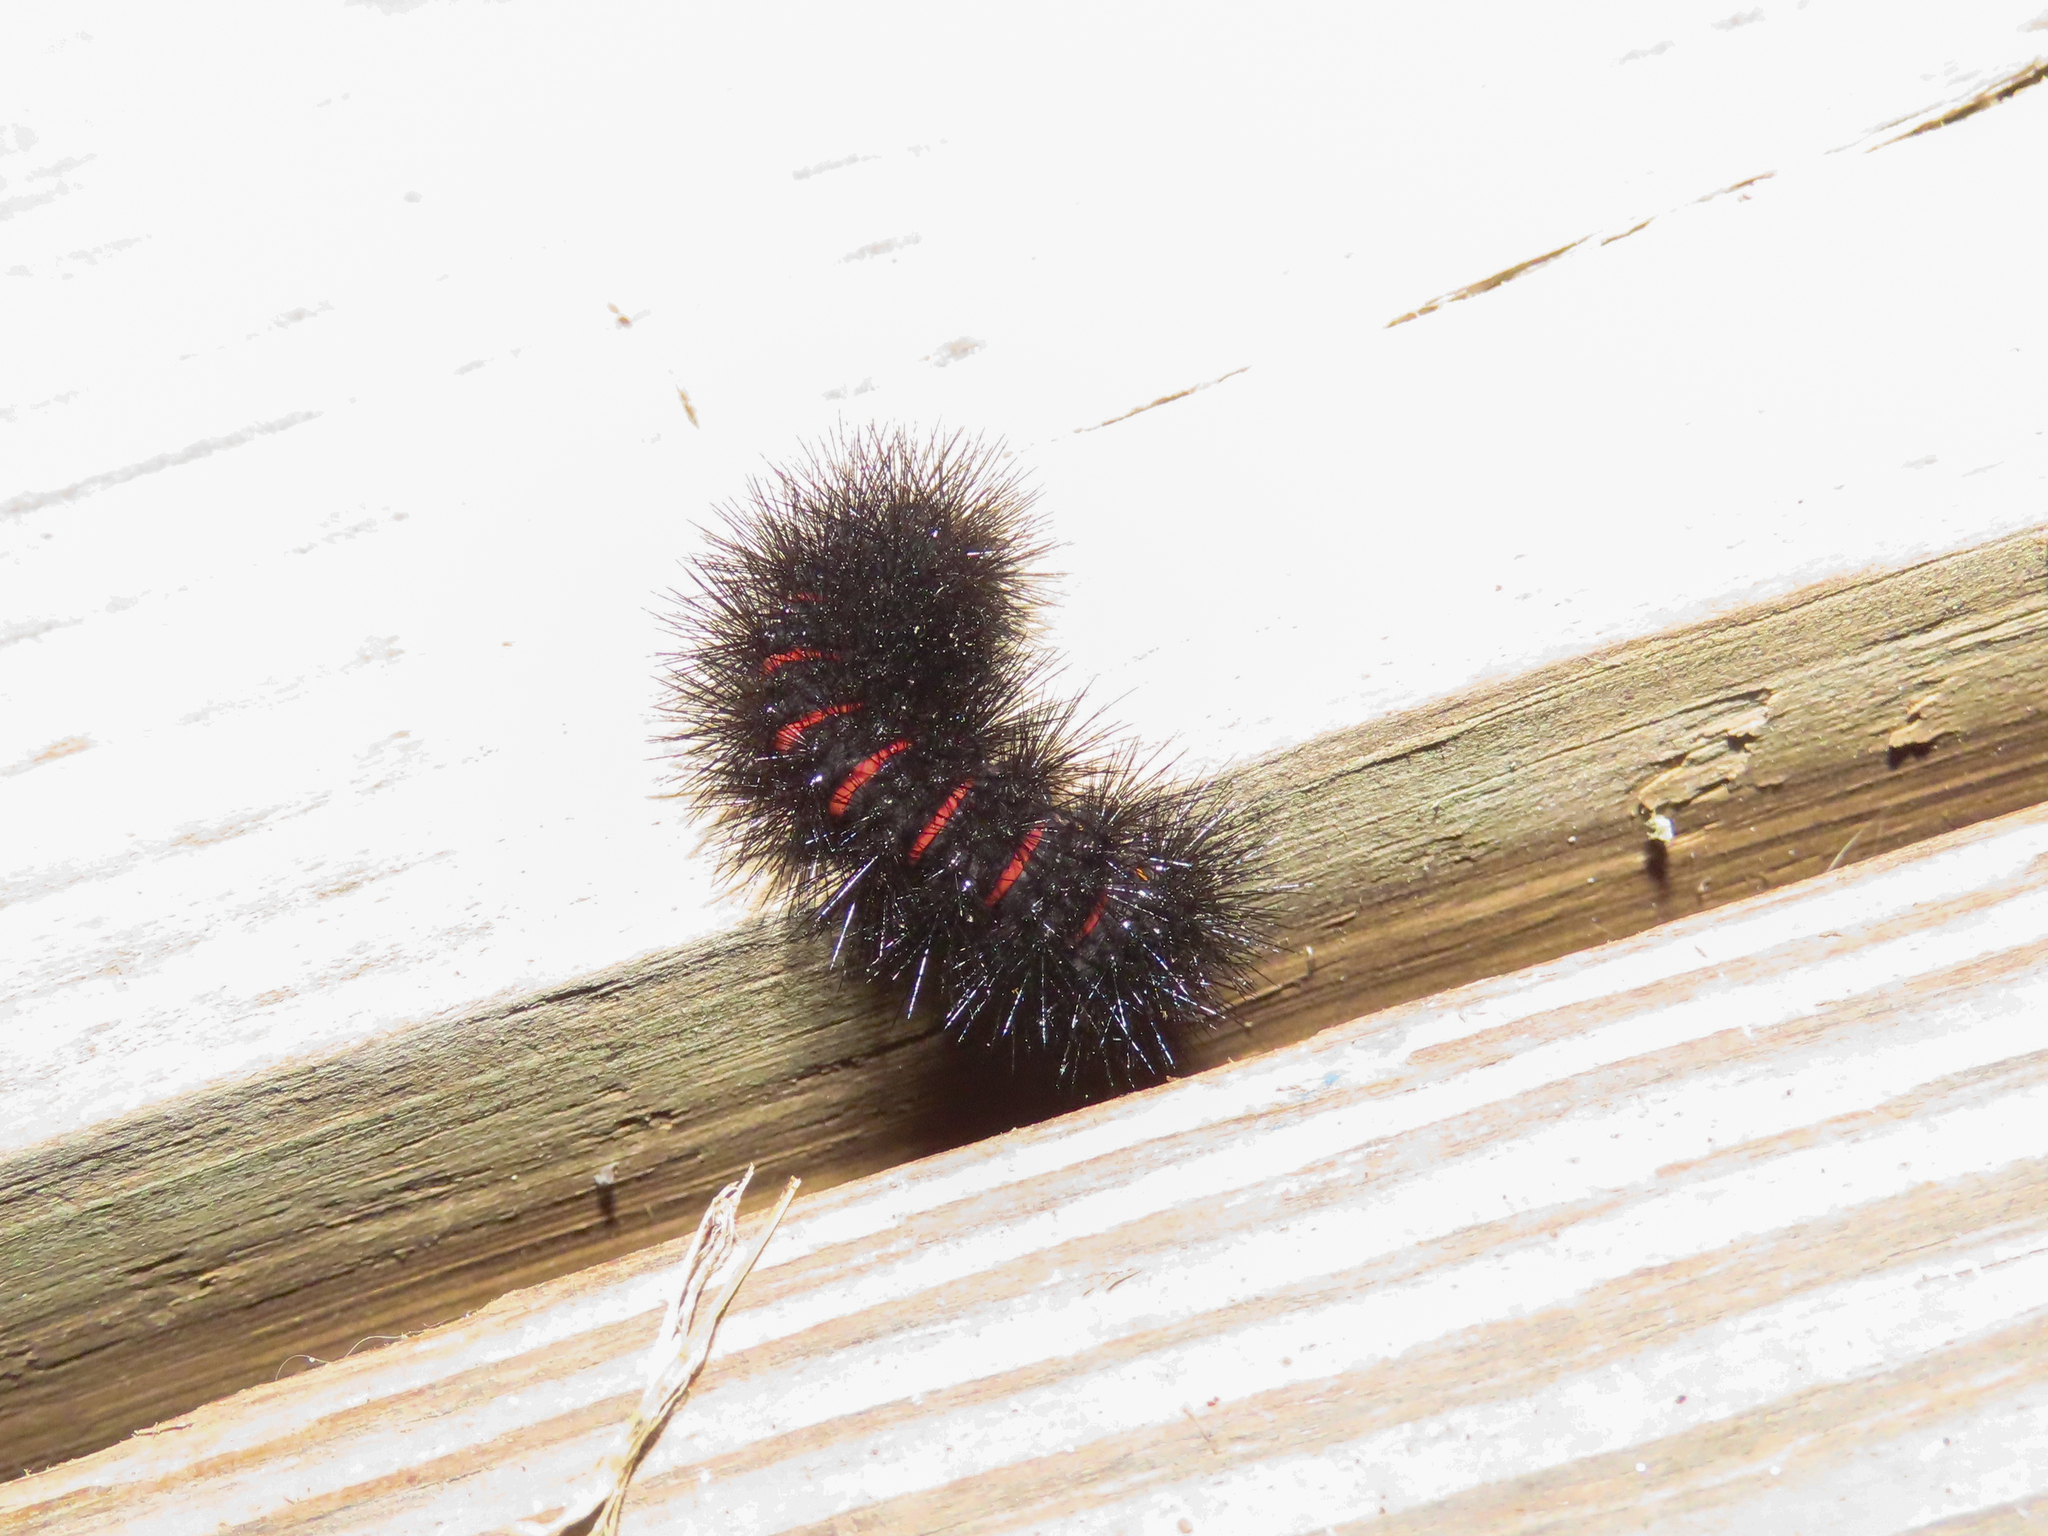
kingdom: Animalia
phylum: Arthropoda
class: Insecta
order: Lepidoptera
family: Erebidae
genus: Hypercompe
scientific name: Hypercompe scribonia
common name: Giant leopard moth
